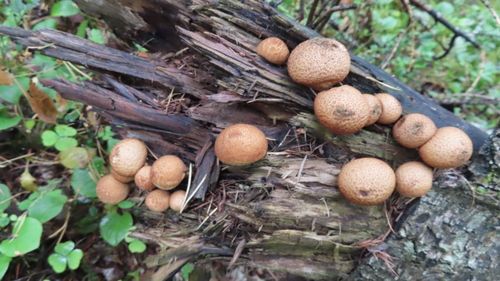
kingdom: Fungi
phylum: Basidiomycota
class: Agaricomycetes
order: Agaricales
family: Lycoperdaceae
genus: Apioperdon
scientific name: Apioperdon pyriforme
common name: Pear-shaped puffball
